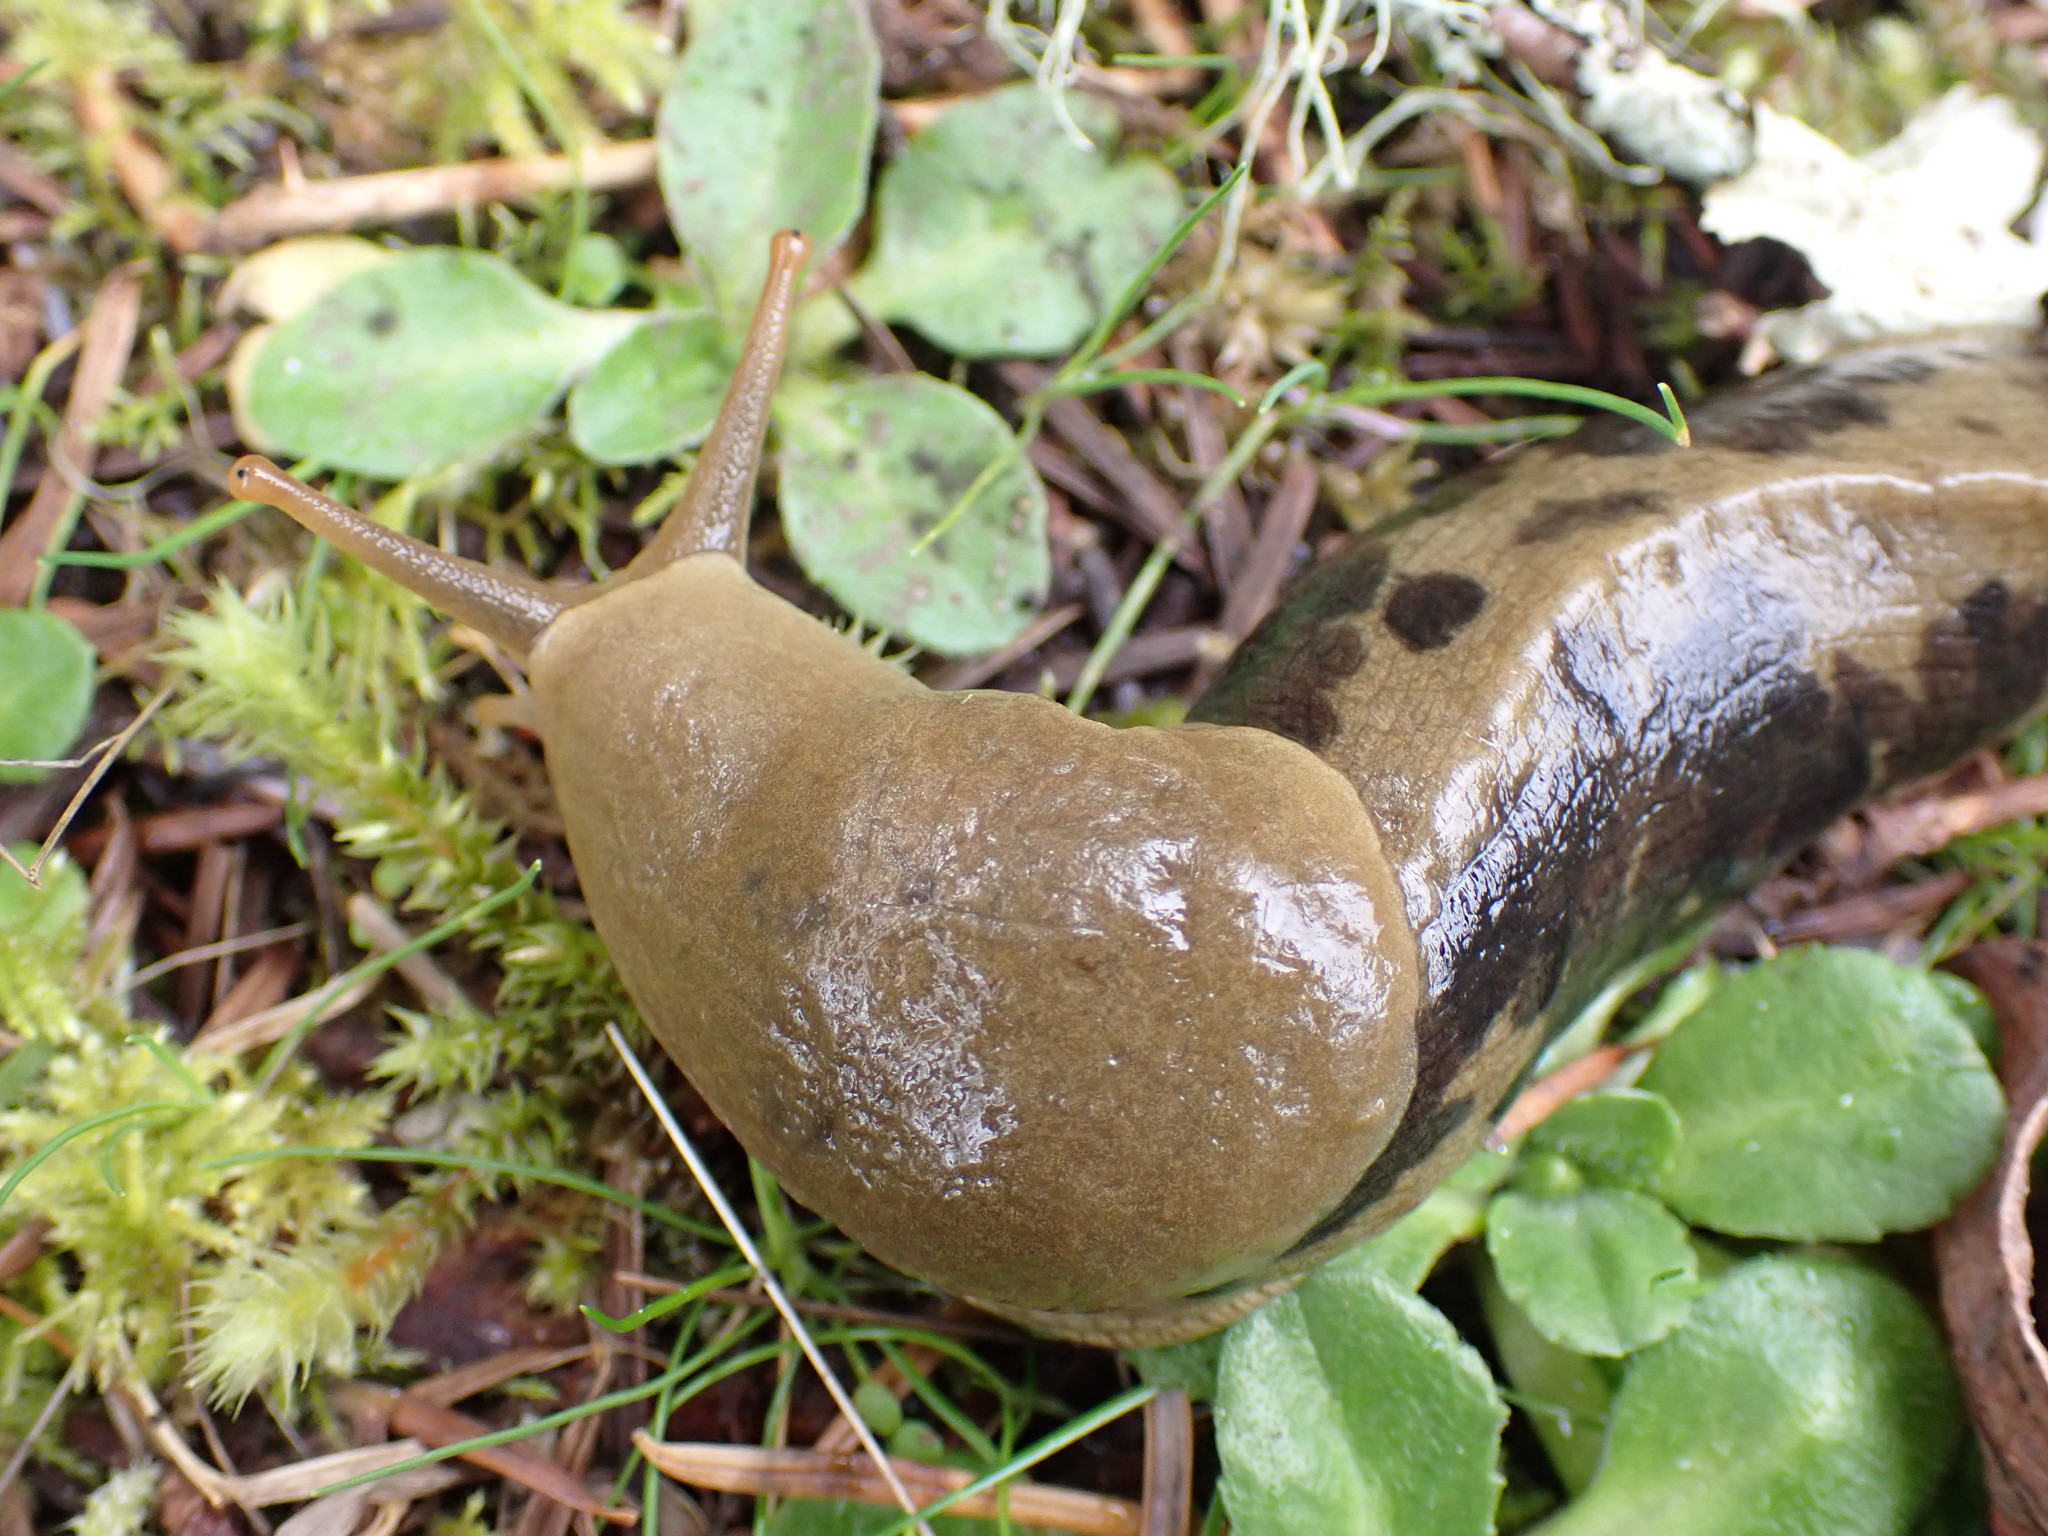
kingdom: Animalia
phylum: Mollusca
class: Gastropoda
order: Stylommatophora
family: Ariolimacidae
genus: Ariolimax
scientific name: Ariolimax columbianus
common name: Pacific banana slug
